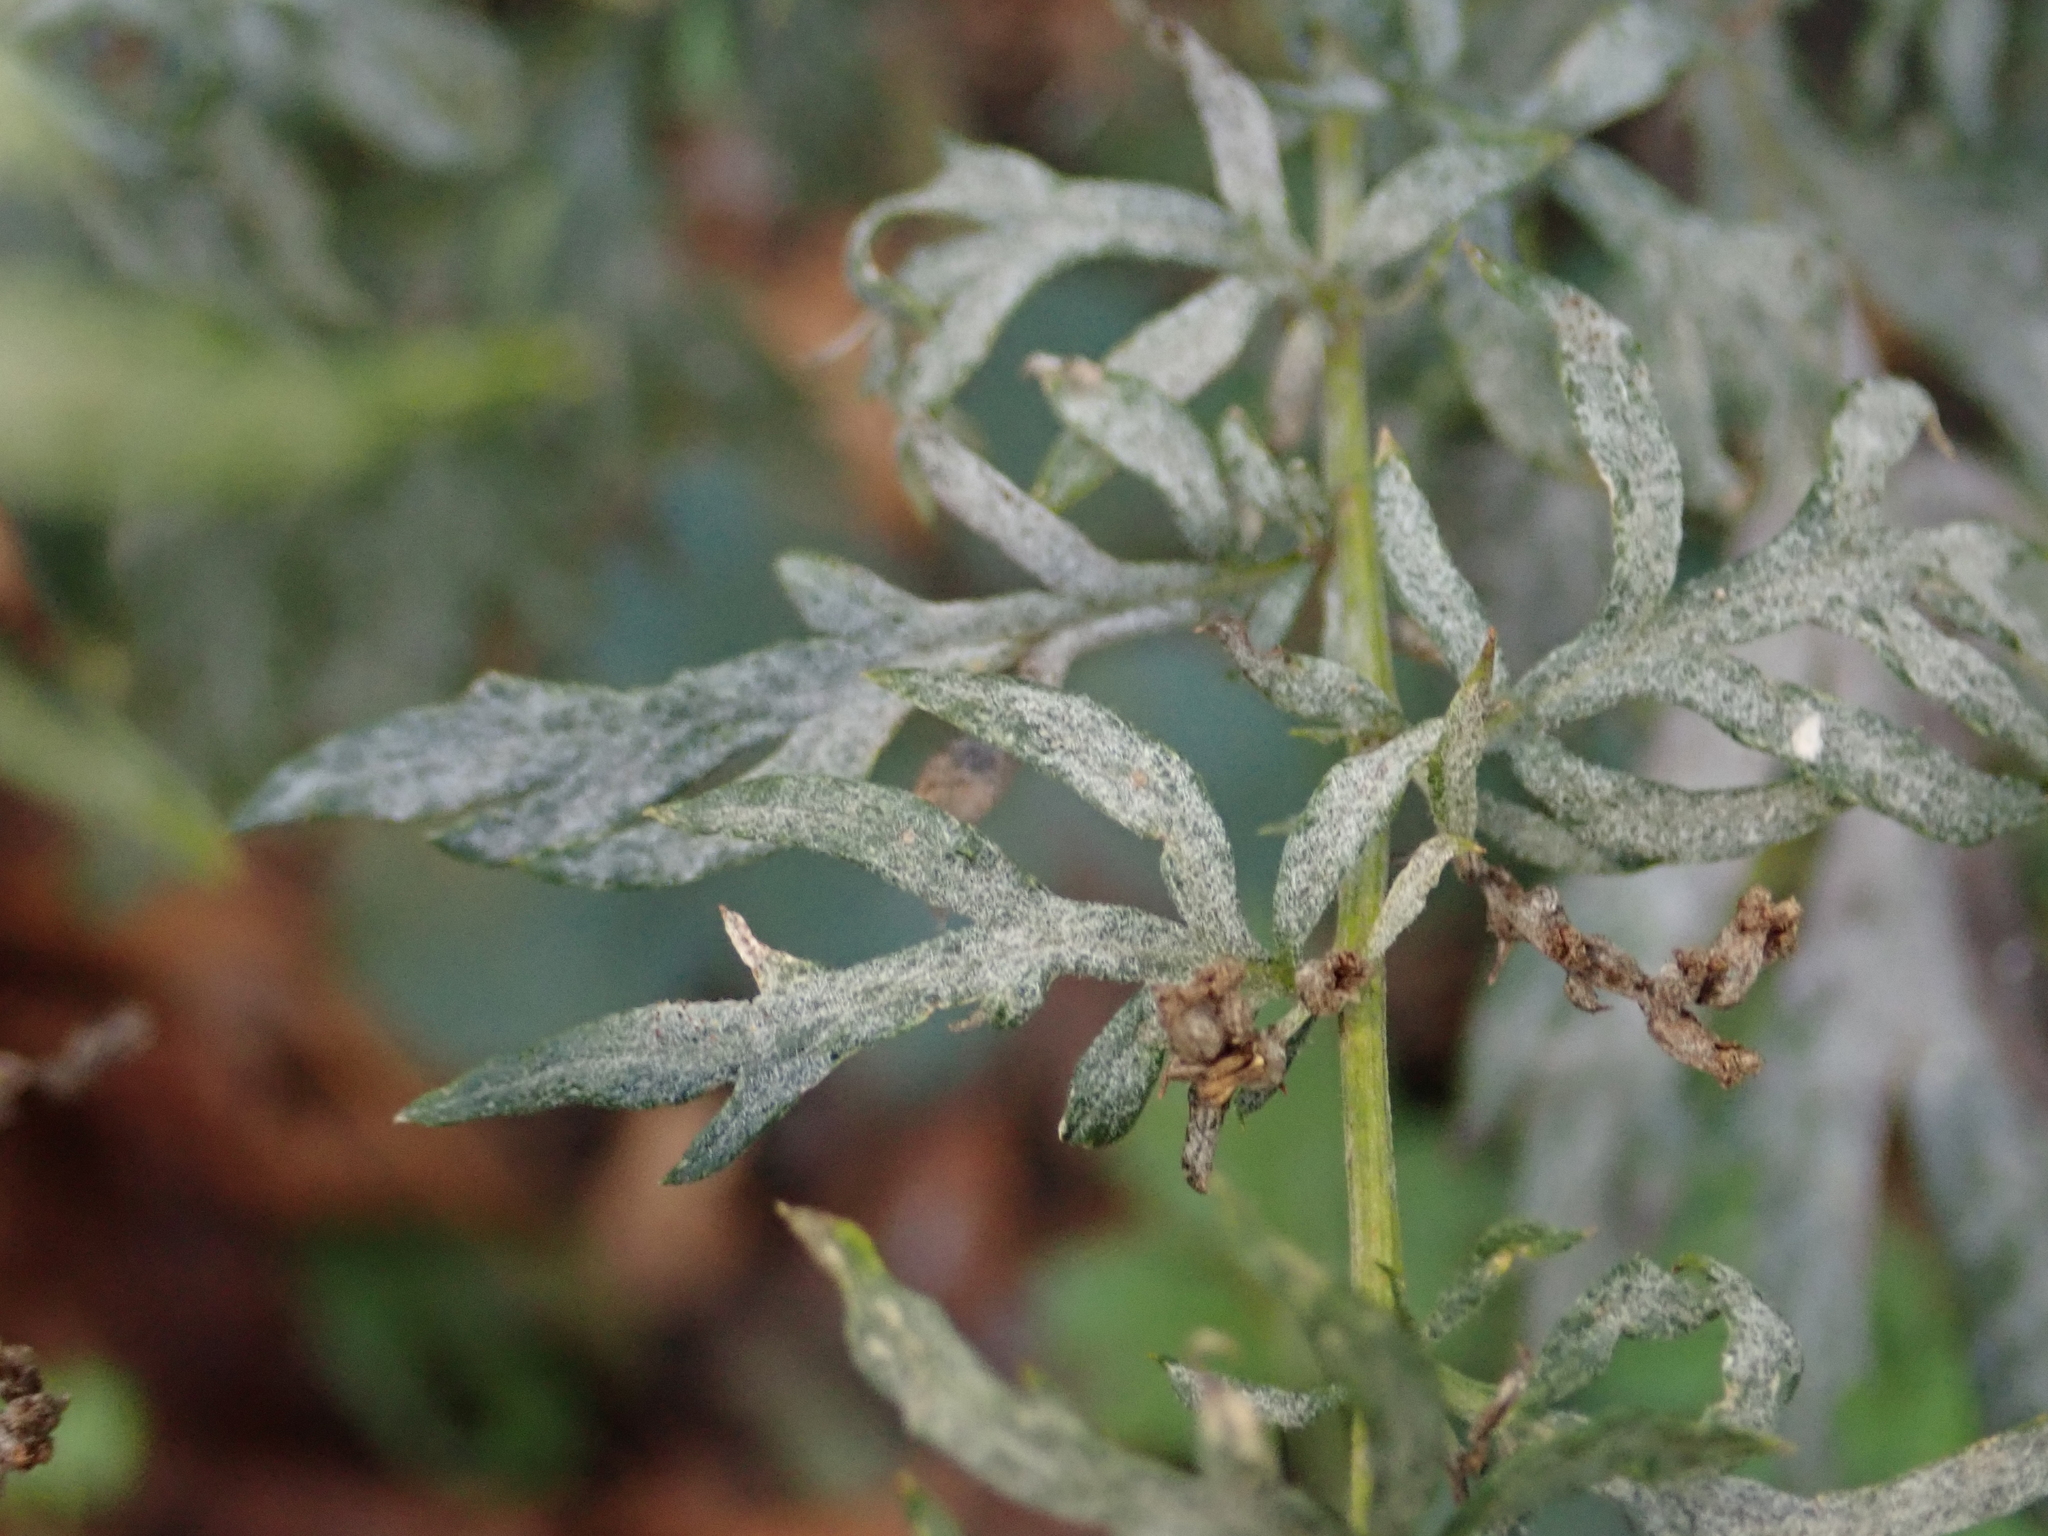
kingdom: Fungi
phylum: Ascomycota
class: Leotiomycetes
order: Helotiales
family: Erysiphaceae
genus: Golovinomyces
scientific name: Golovinomyces artemisiae
